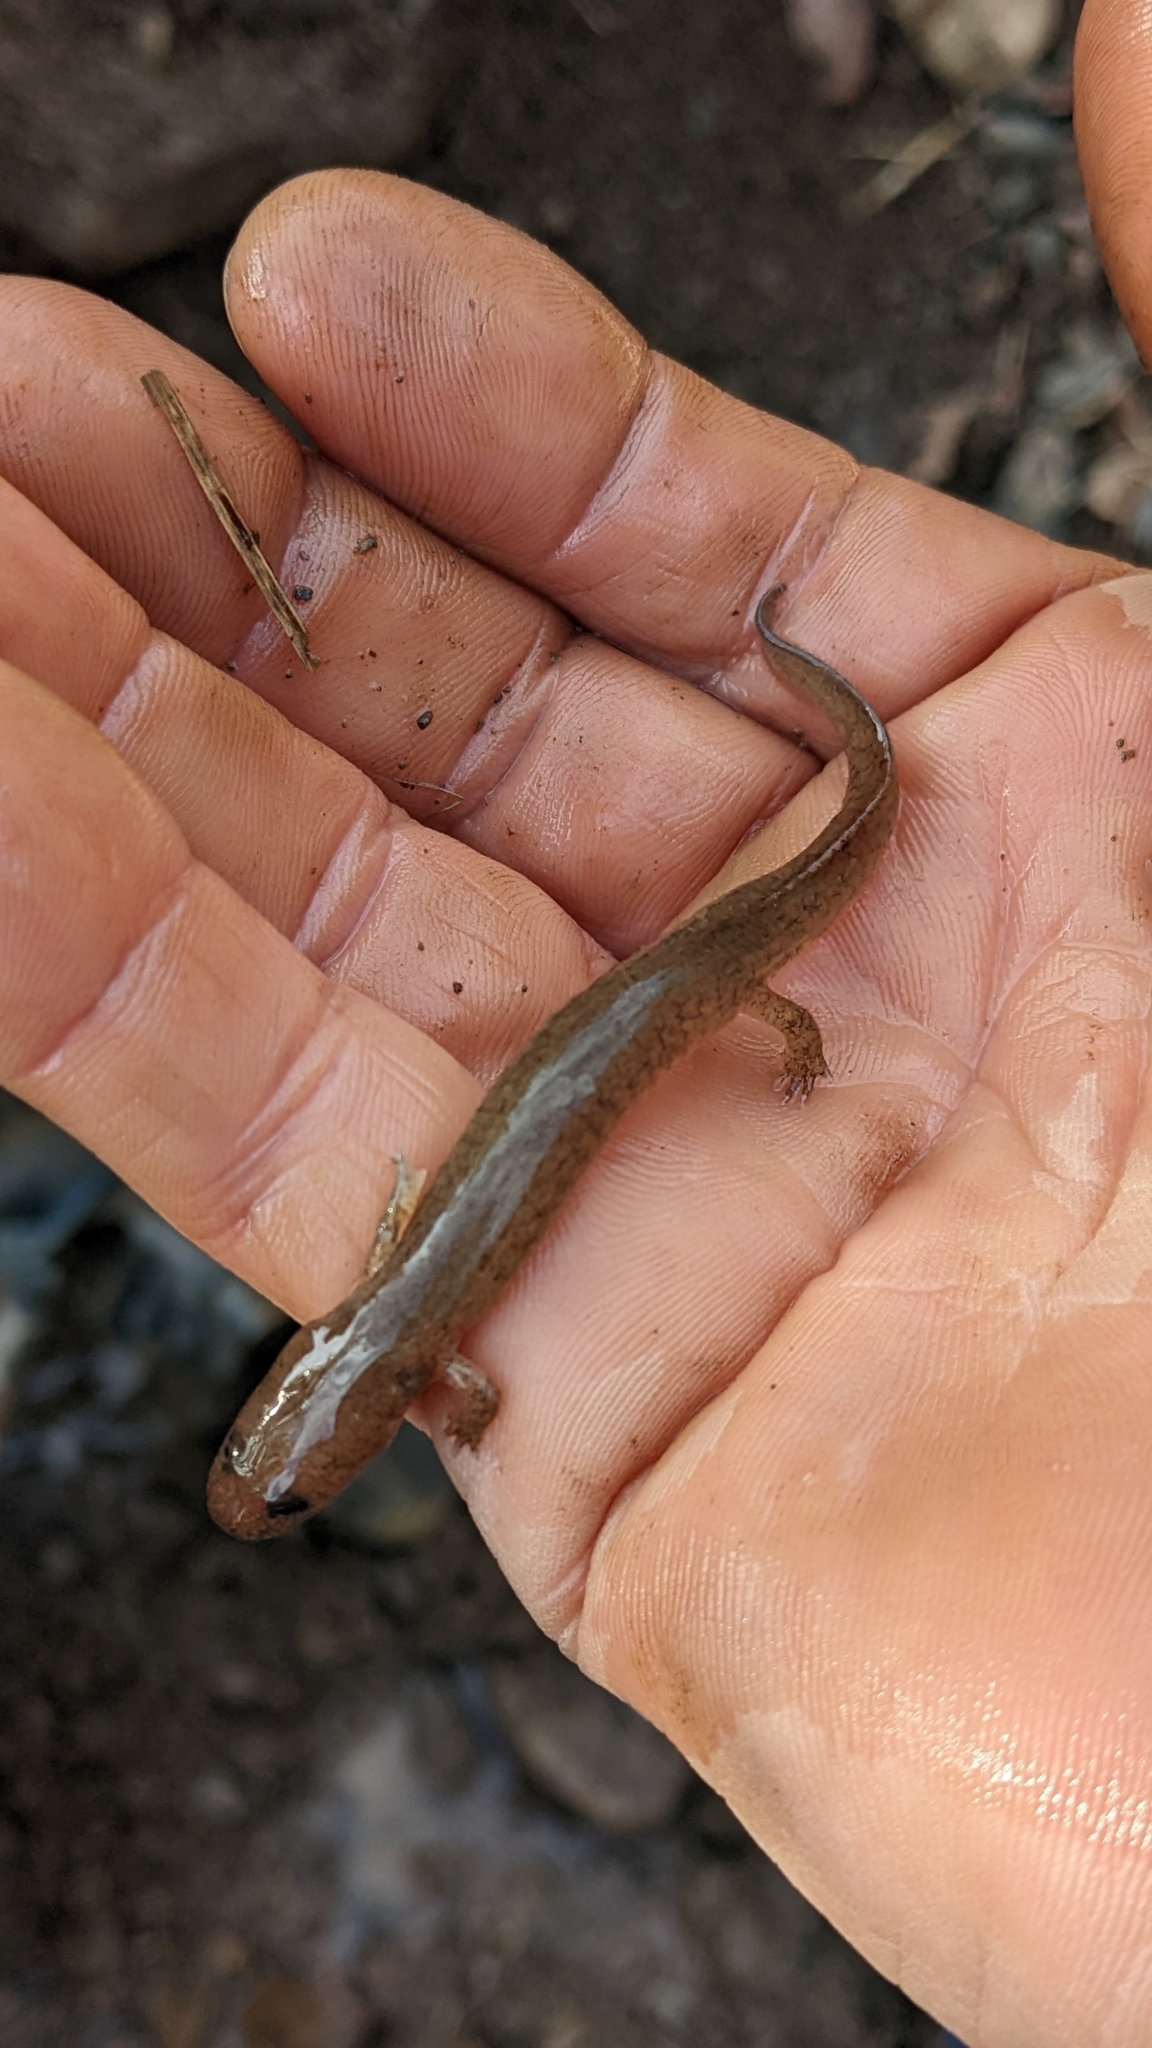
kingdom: Animalia
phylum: Chordata
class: Amphibia
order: Caudata
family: Plethodontidae
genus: Gyrinophilus
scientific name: Gyrinophilus porphyriticus
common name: Spring salamander
